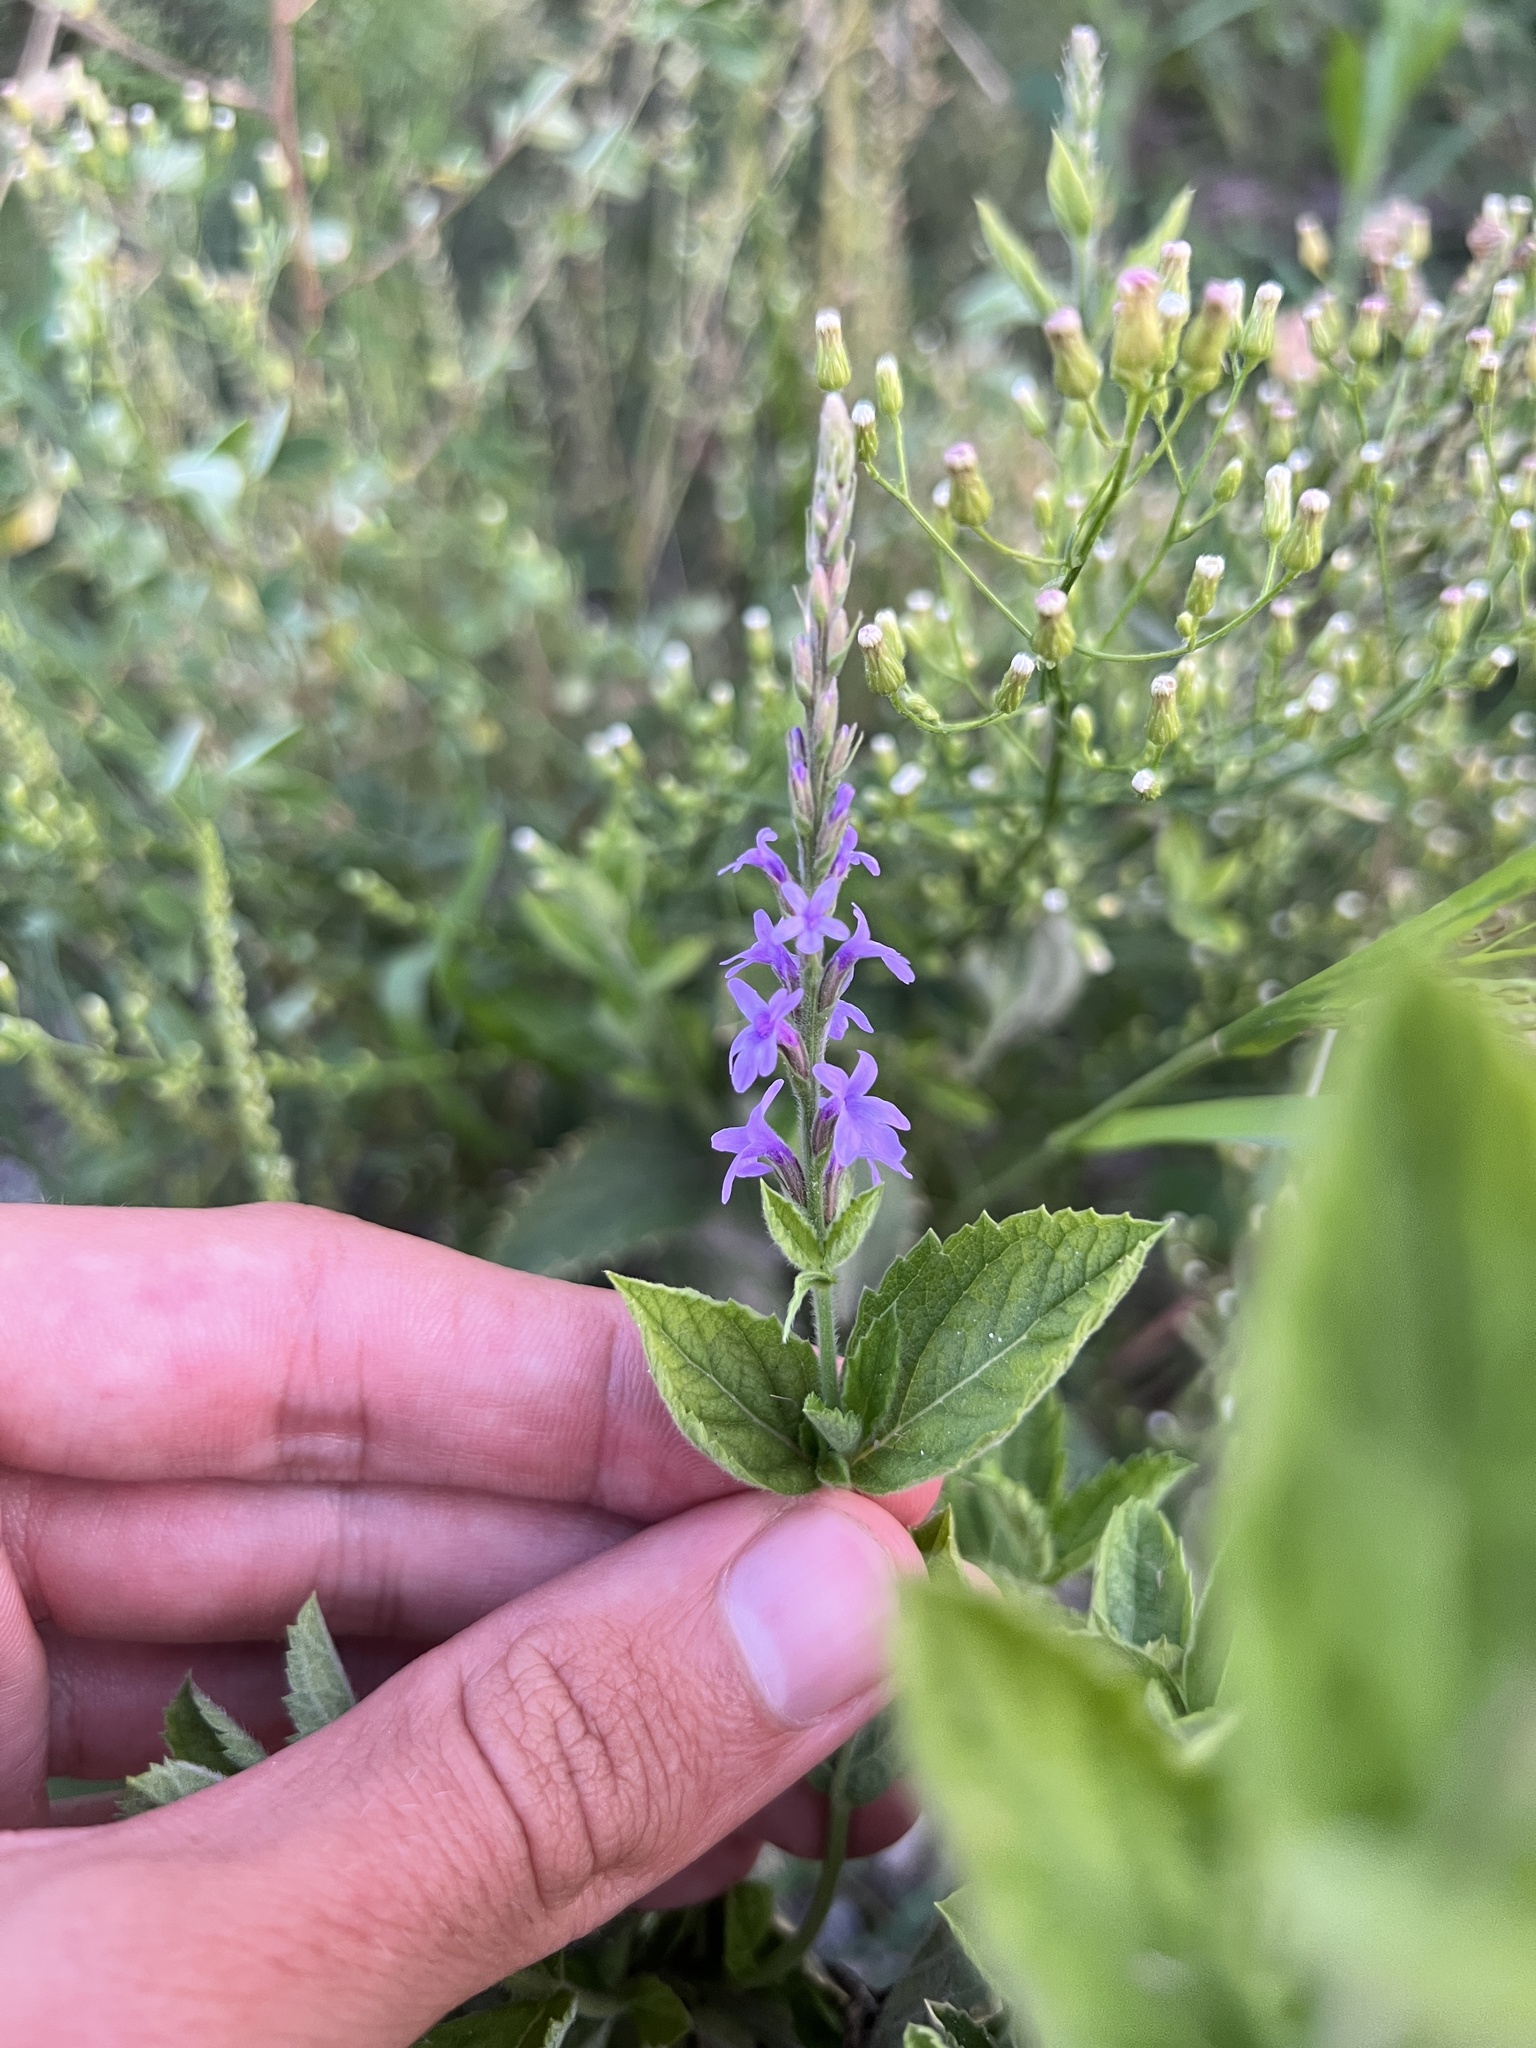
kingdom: Plantae
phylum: Tracheophyta
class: Magnoliopsida
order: Lamiales
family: Verbenaceae
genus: Verbena
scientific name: Verbena stricta
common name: Hoary vervain
